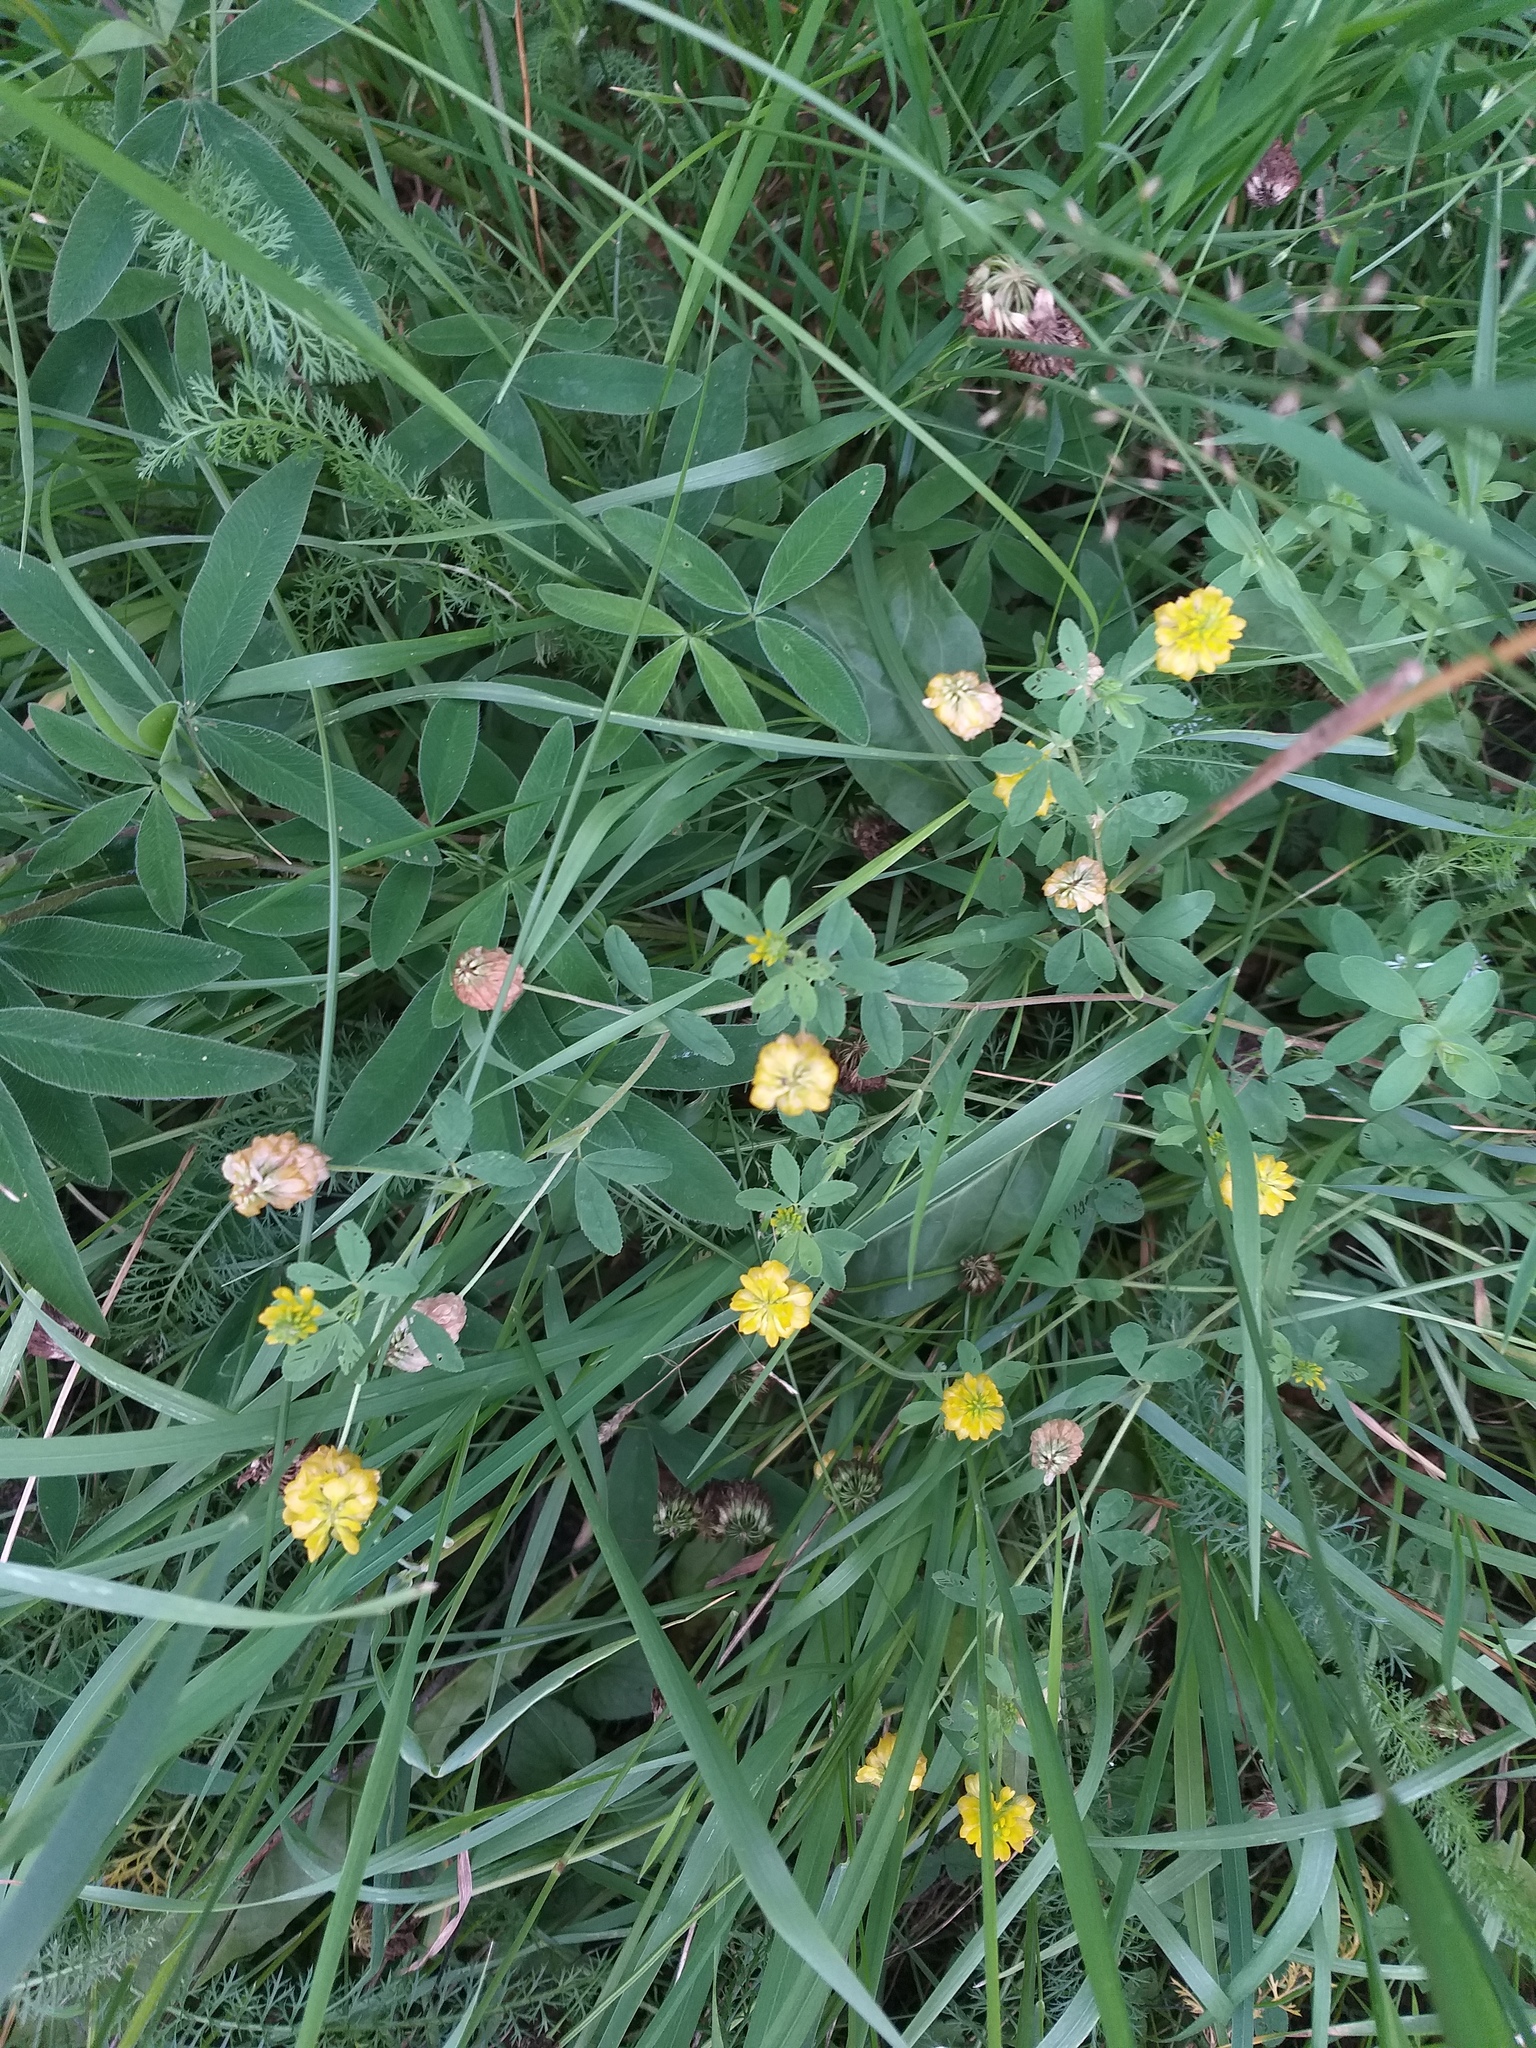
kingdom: Plantae
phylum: Tracheophyta
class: Magnoliopsida
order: Fabales
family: Fabaceae
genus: Trifolium
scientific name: Trifolium aureum
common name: Golden clover
